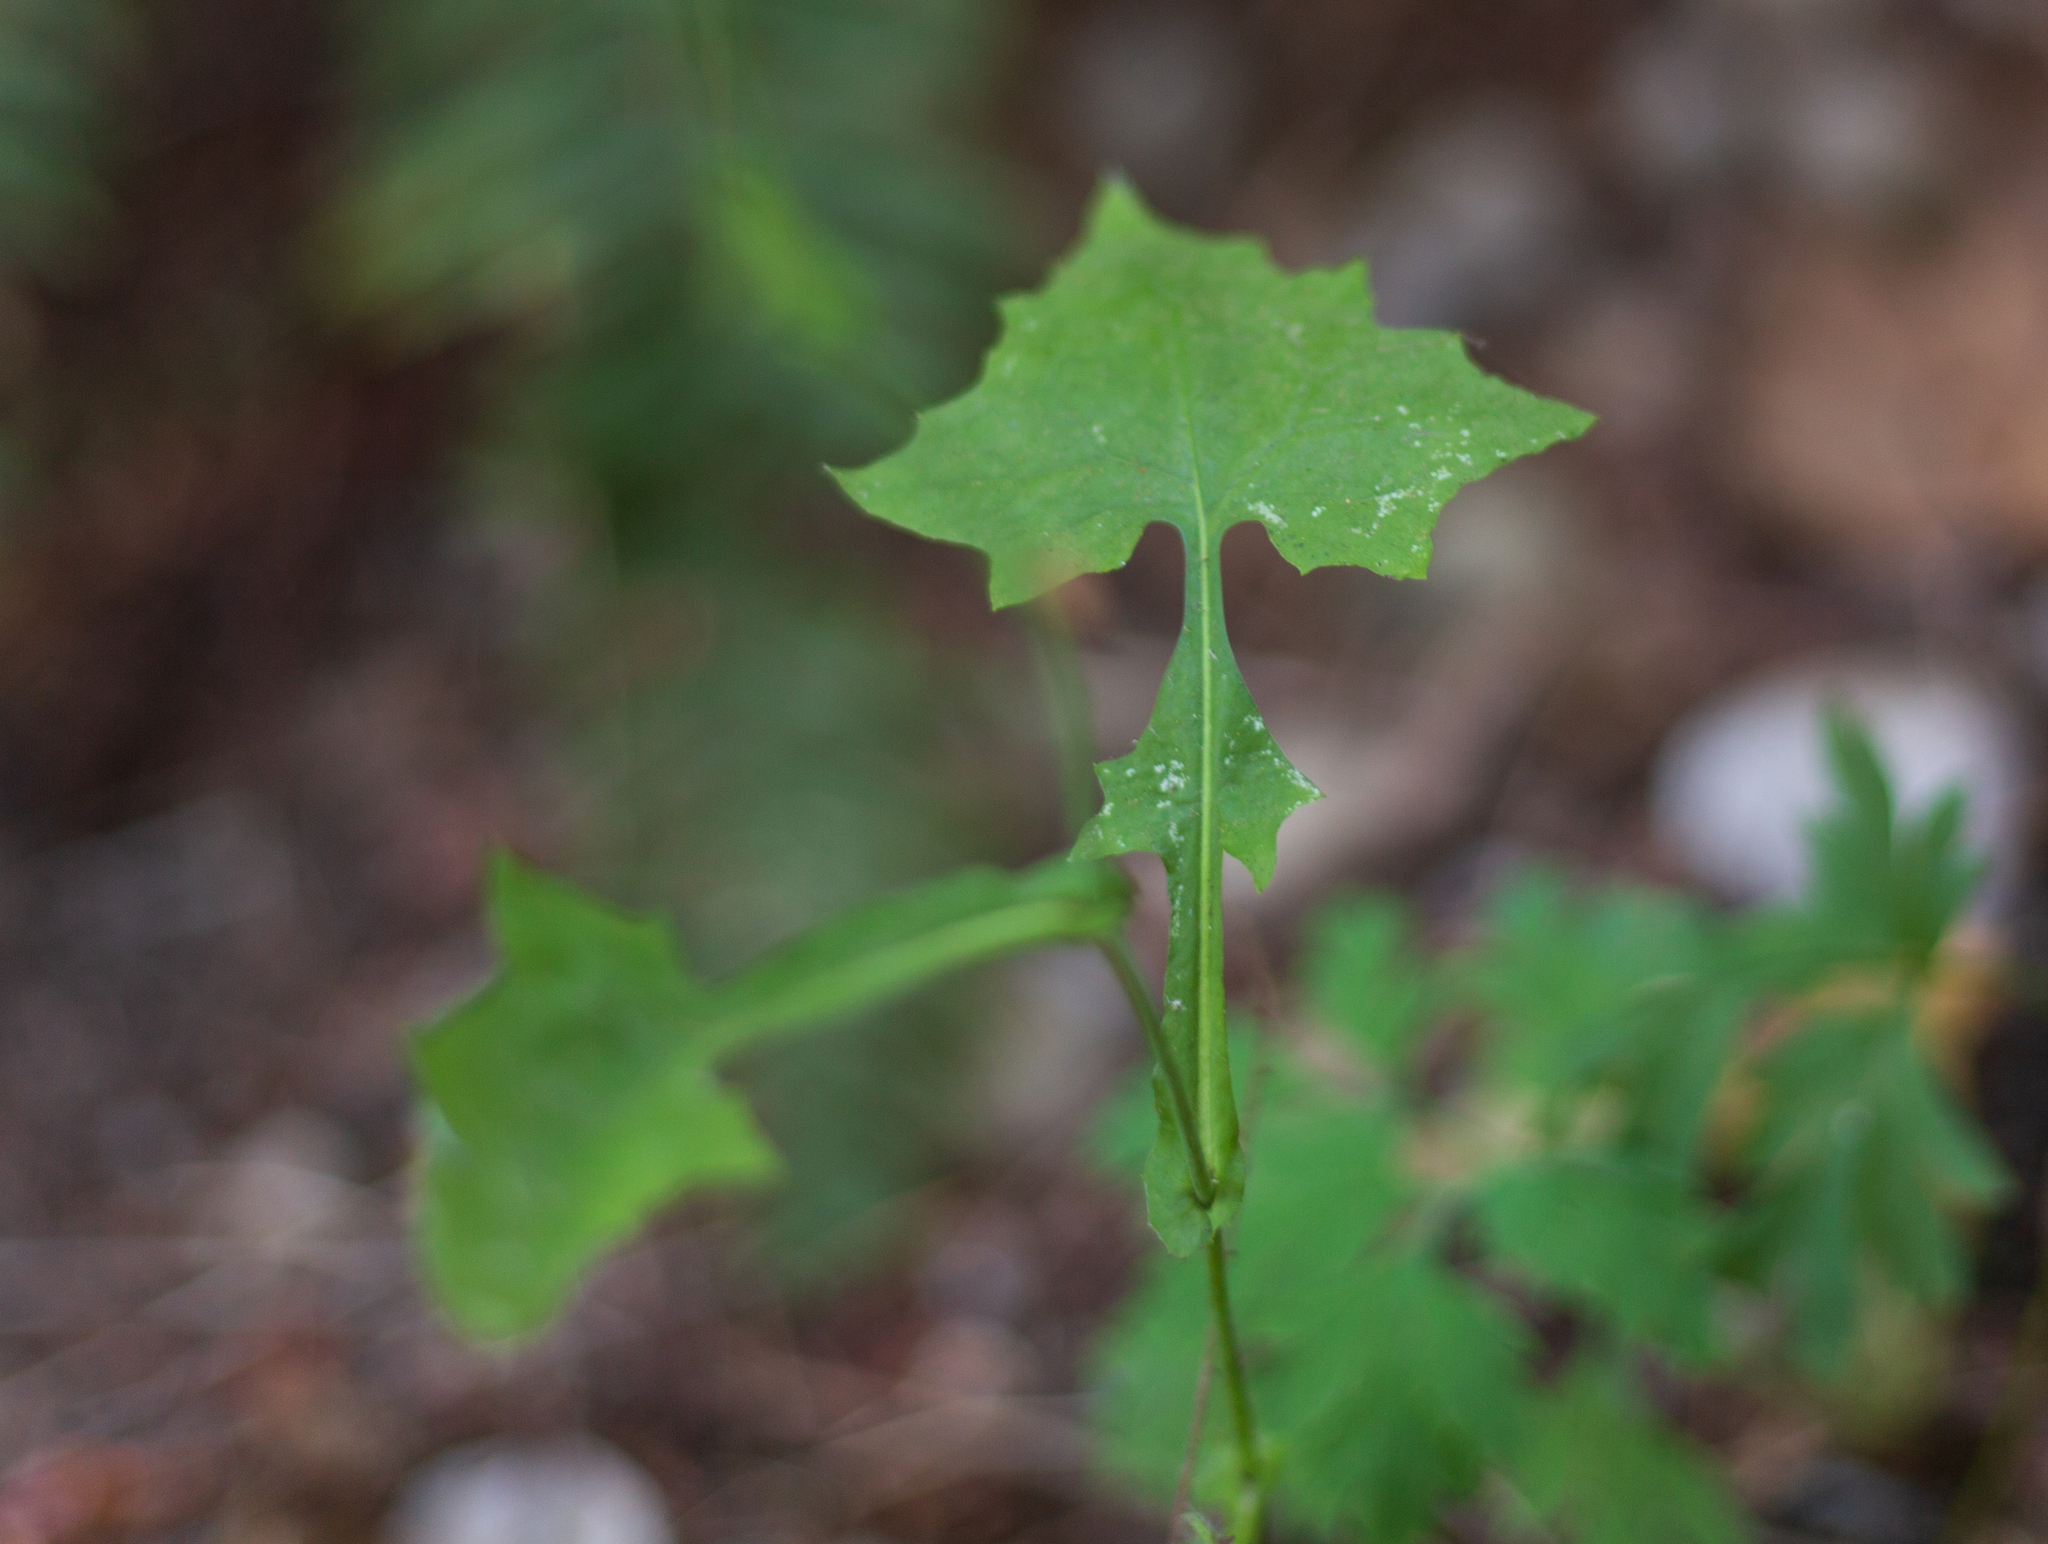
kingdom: Plantae
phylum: Tracheophyta
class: Magnoliopsida
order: Asterales
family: Asteraceae
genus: Mycelis
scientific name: Mycelis muralis
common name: Wall lettuce
